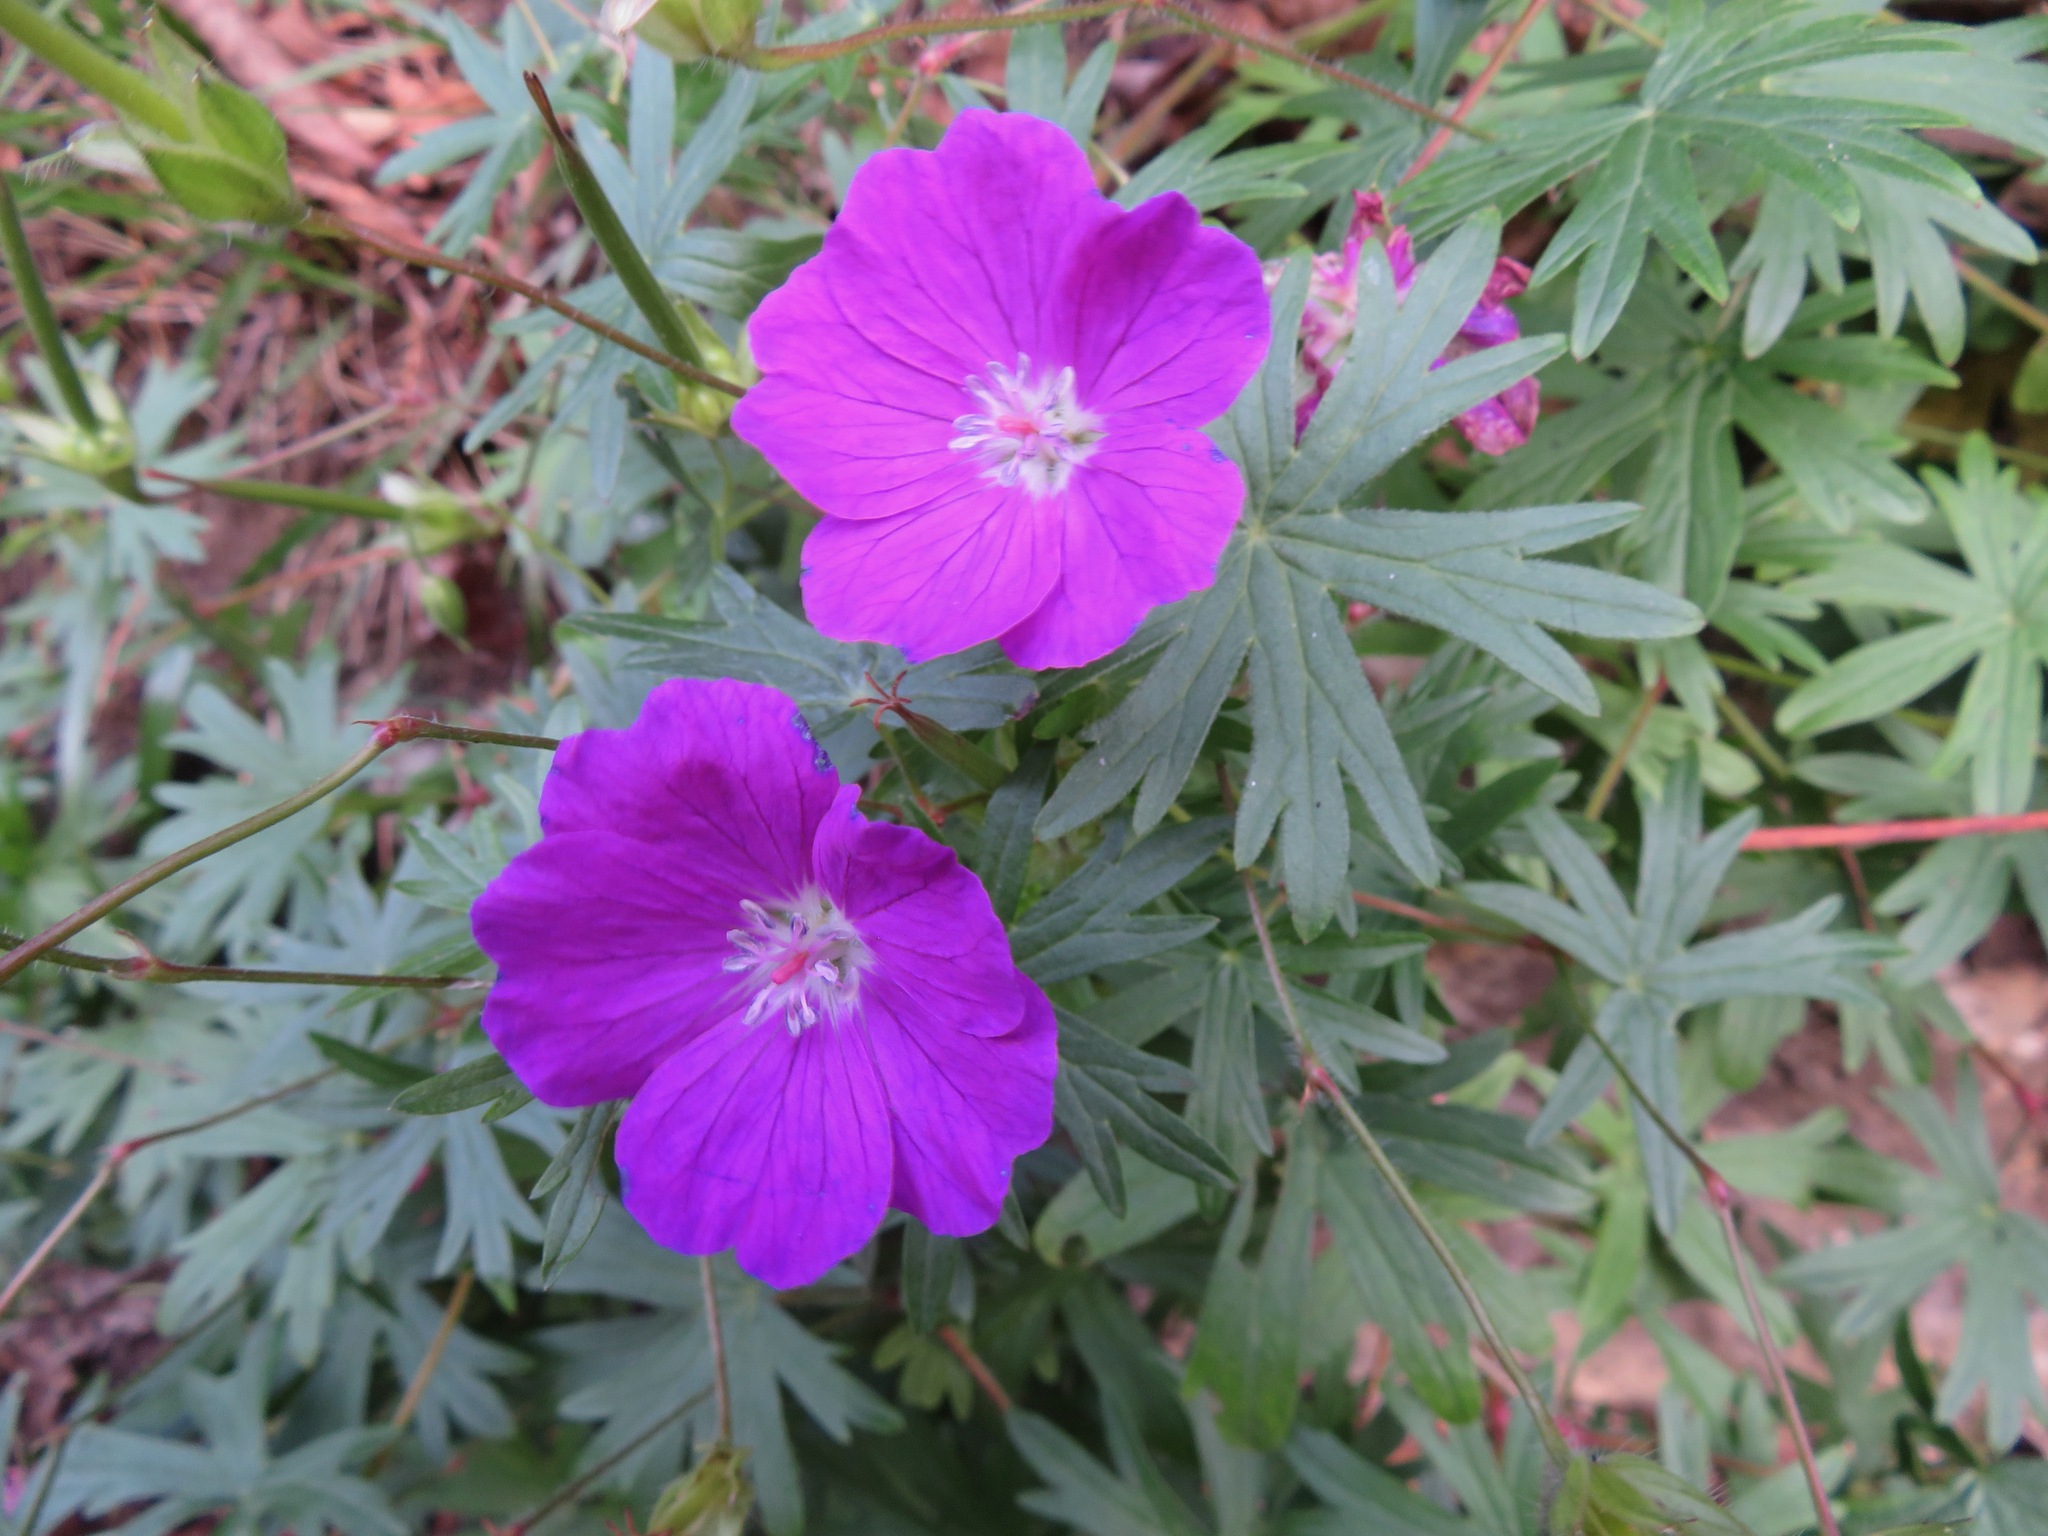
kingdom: Plantae
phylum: Tracheophyta
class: Magnoliopsida
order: Geraniales
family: Geraniaceae
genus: Geranium
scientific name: Geranium sanguineum
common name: Bloody crane's-bill
